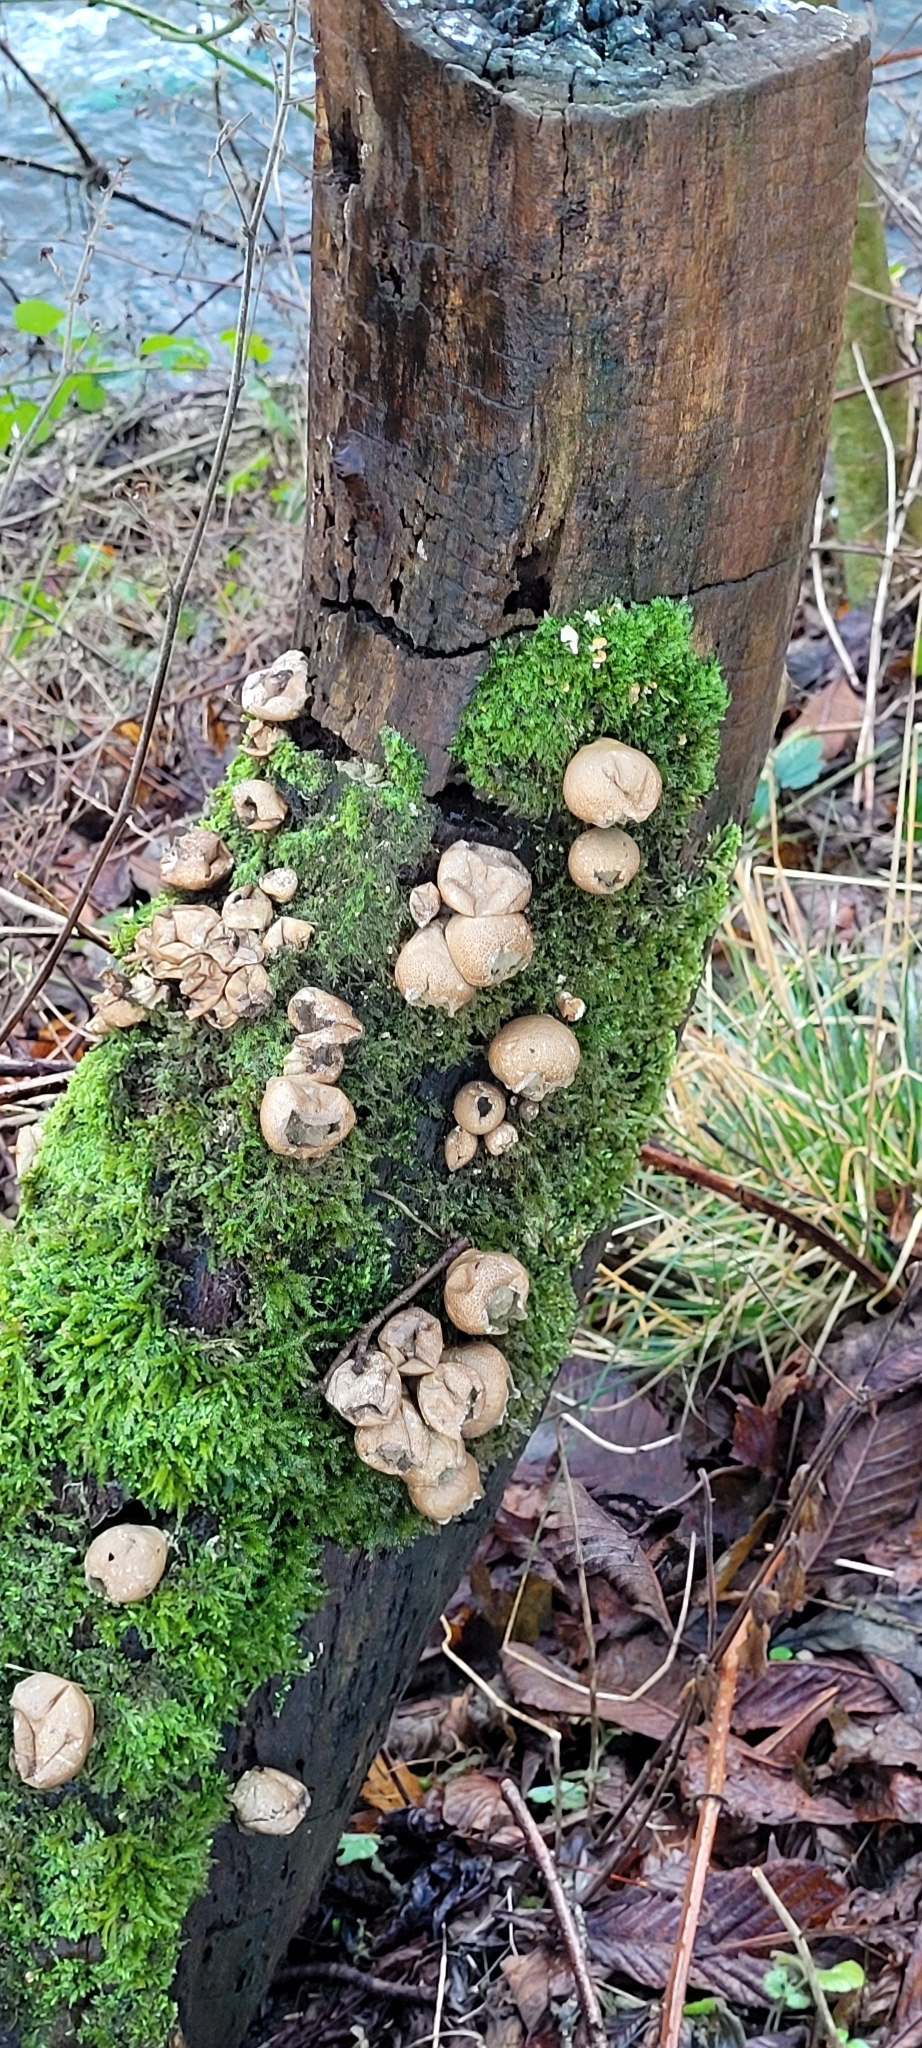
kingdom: Fungi
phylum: Basidiomycota
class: Agaricomycetes
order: Agaricales
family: Lycoperdaceae
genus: Apioperdon
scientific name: Apioperdon pyriforme
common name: Pear-shaped puffball
